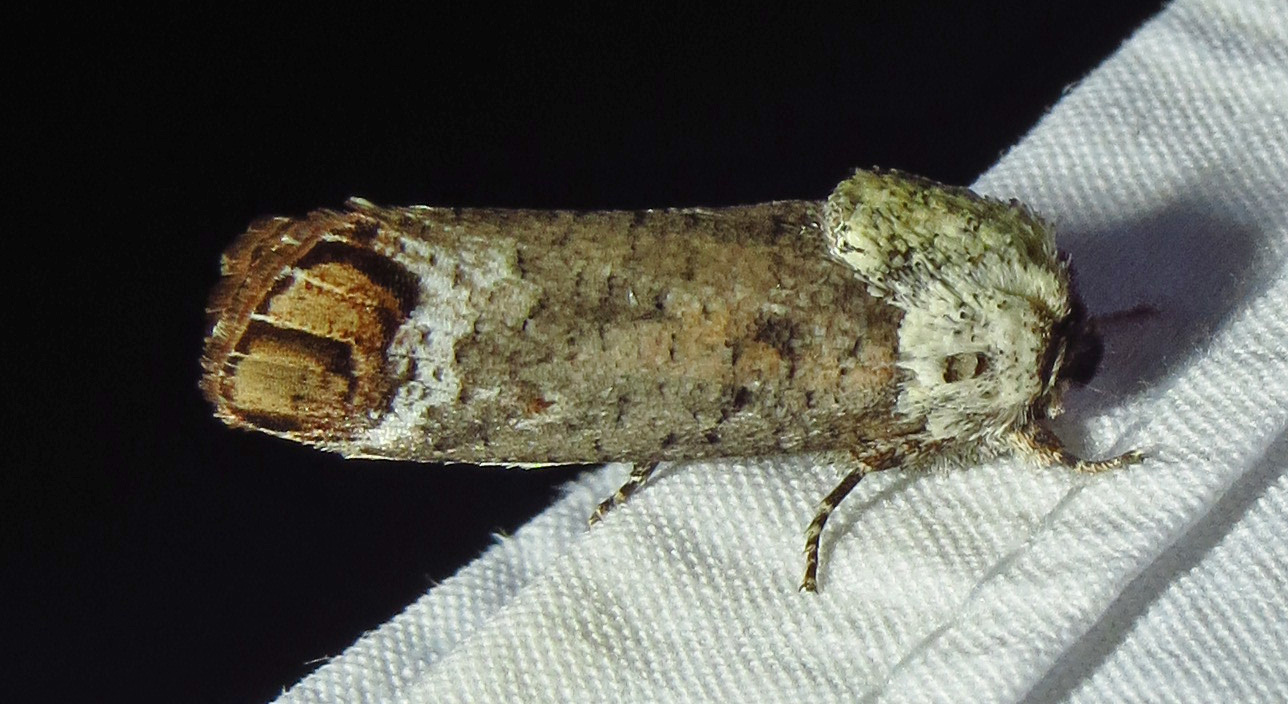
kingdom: Animalia
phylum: Arthropoda
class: Insecta
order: Lepidoptera
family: Cossidae
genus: Cossula
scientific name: Cossula magnifica
